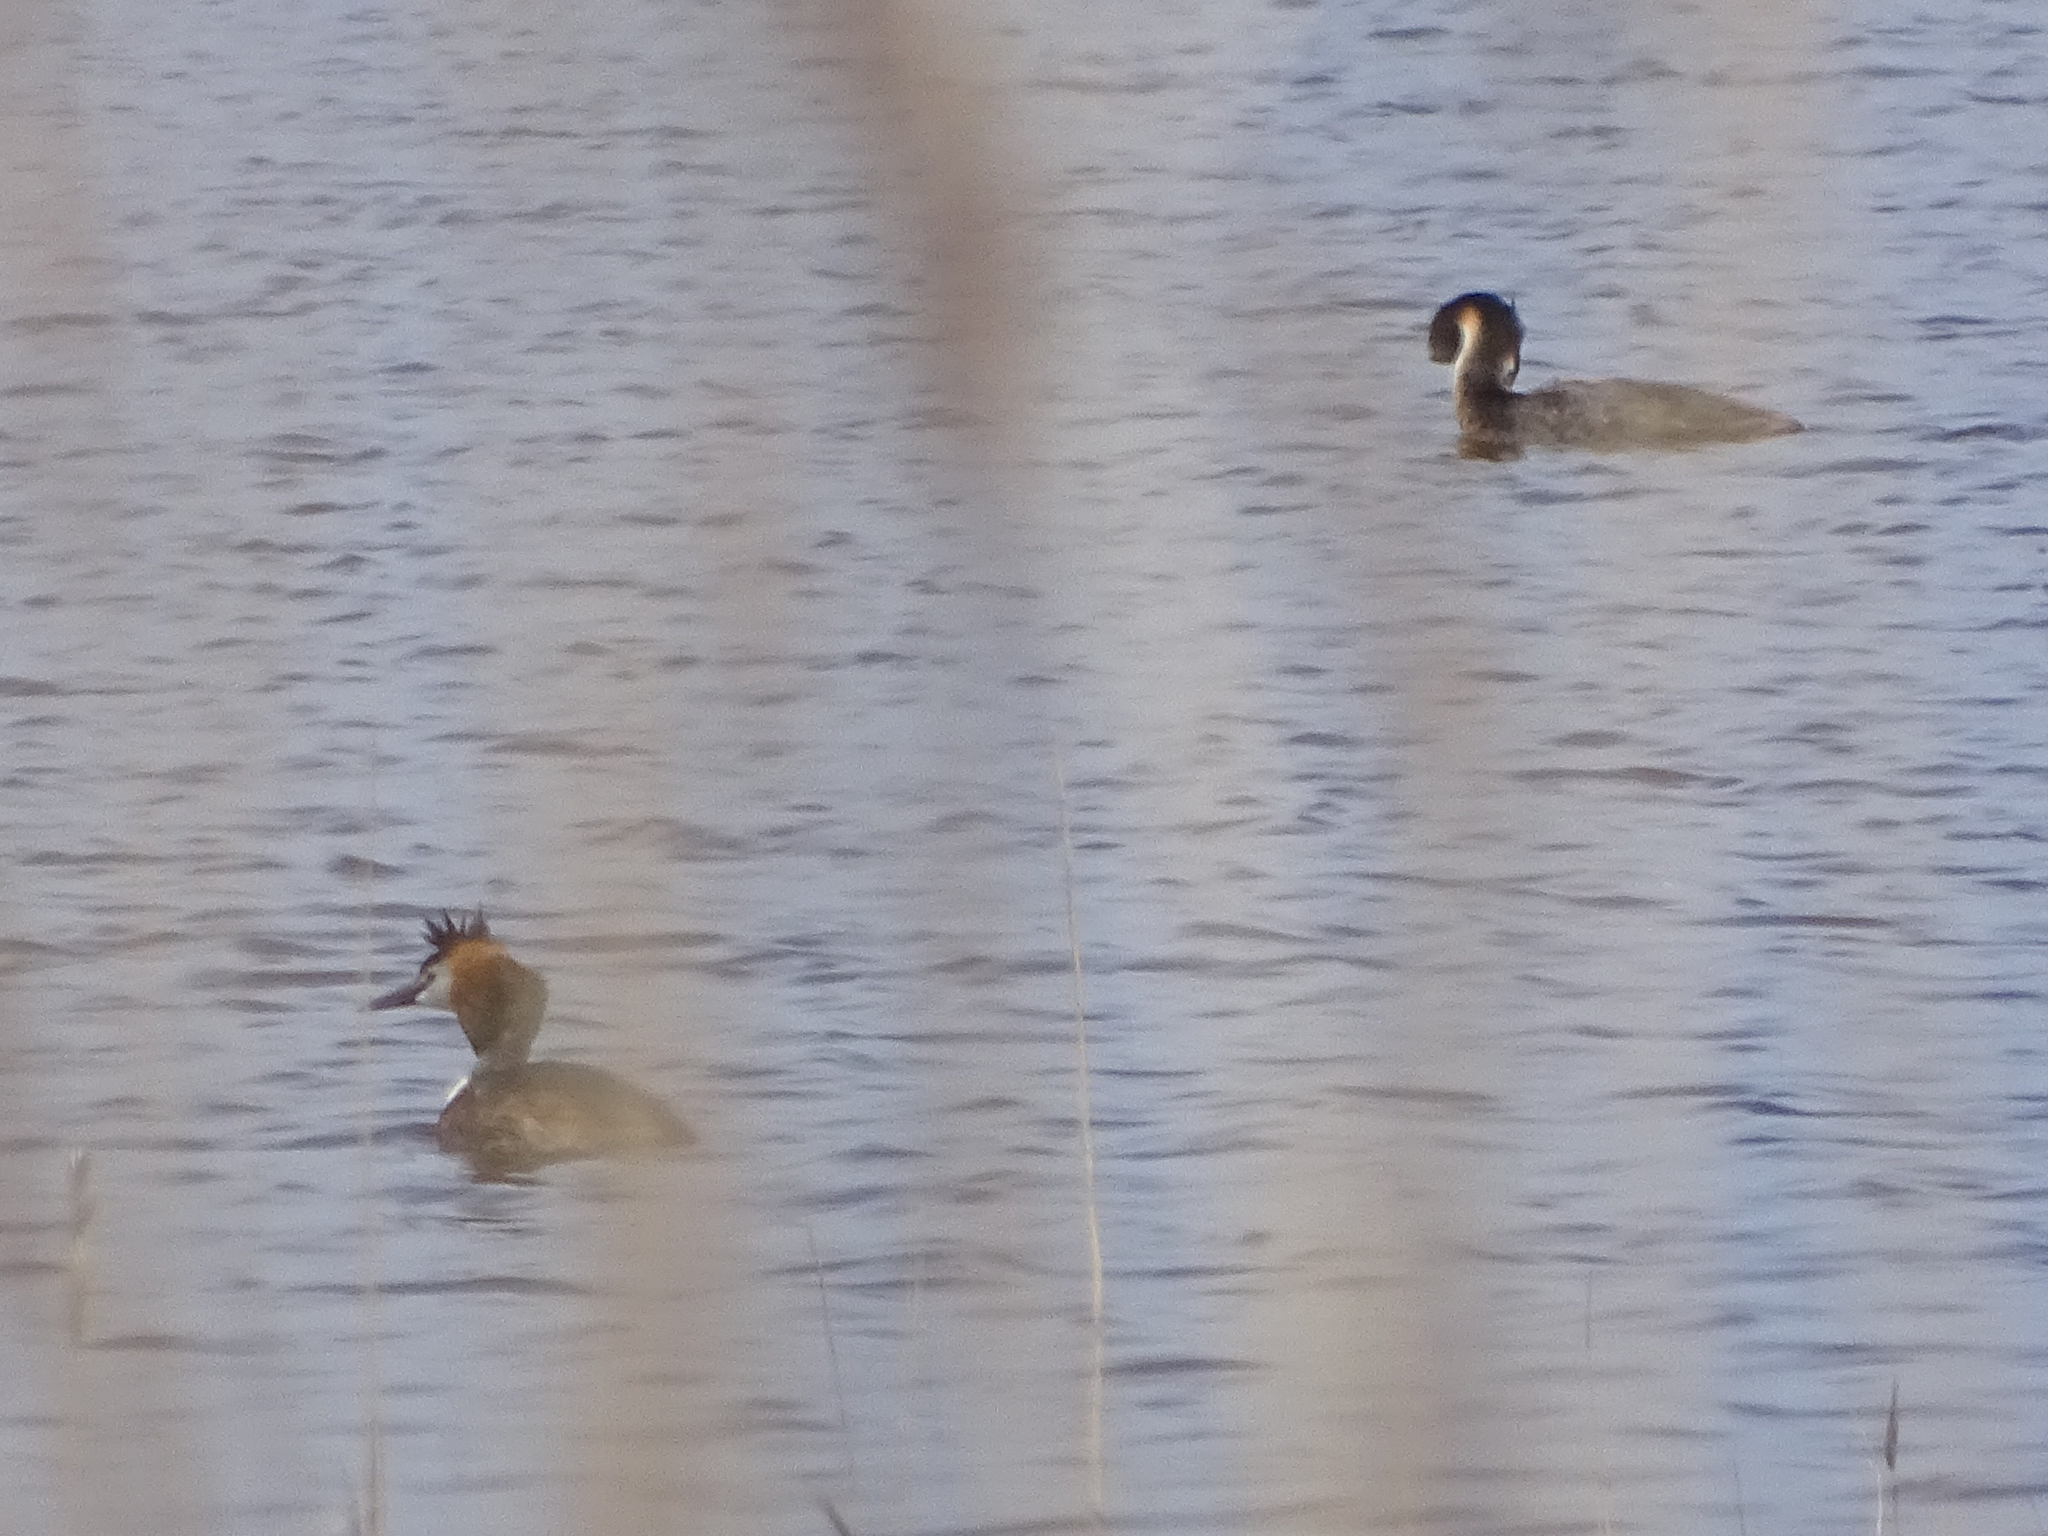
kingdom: Animalia
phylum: Chordata
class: Aves
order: Podicipediformes
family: Podicipedidae
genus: Podiceps
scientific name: Podiceps cristatus
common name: Great crested grebe
